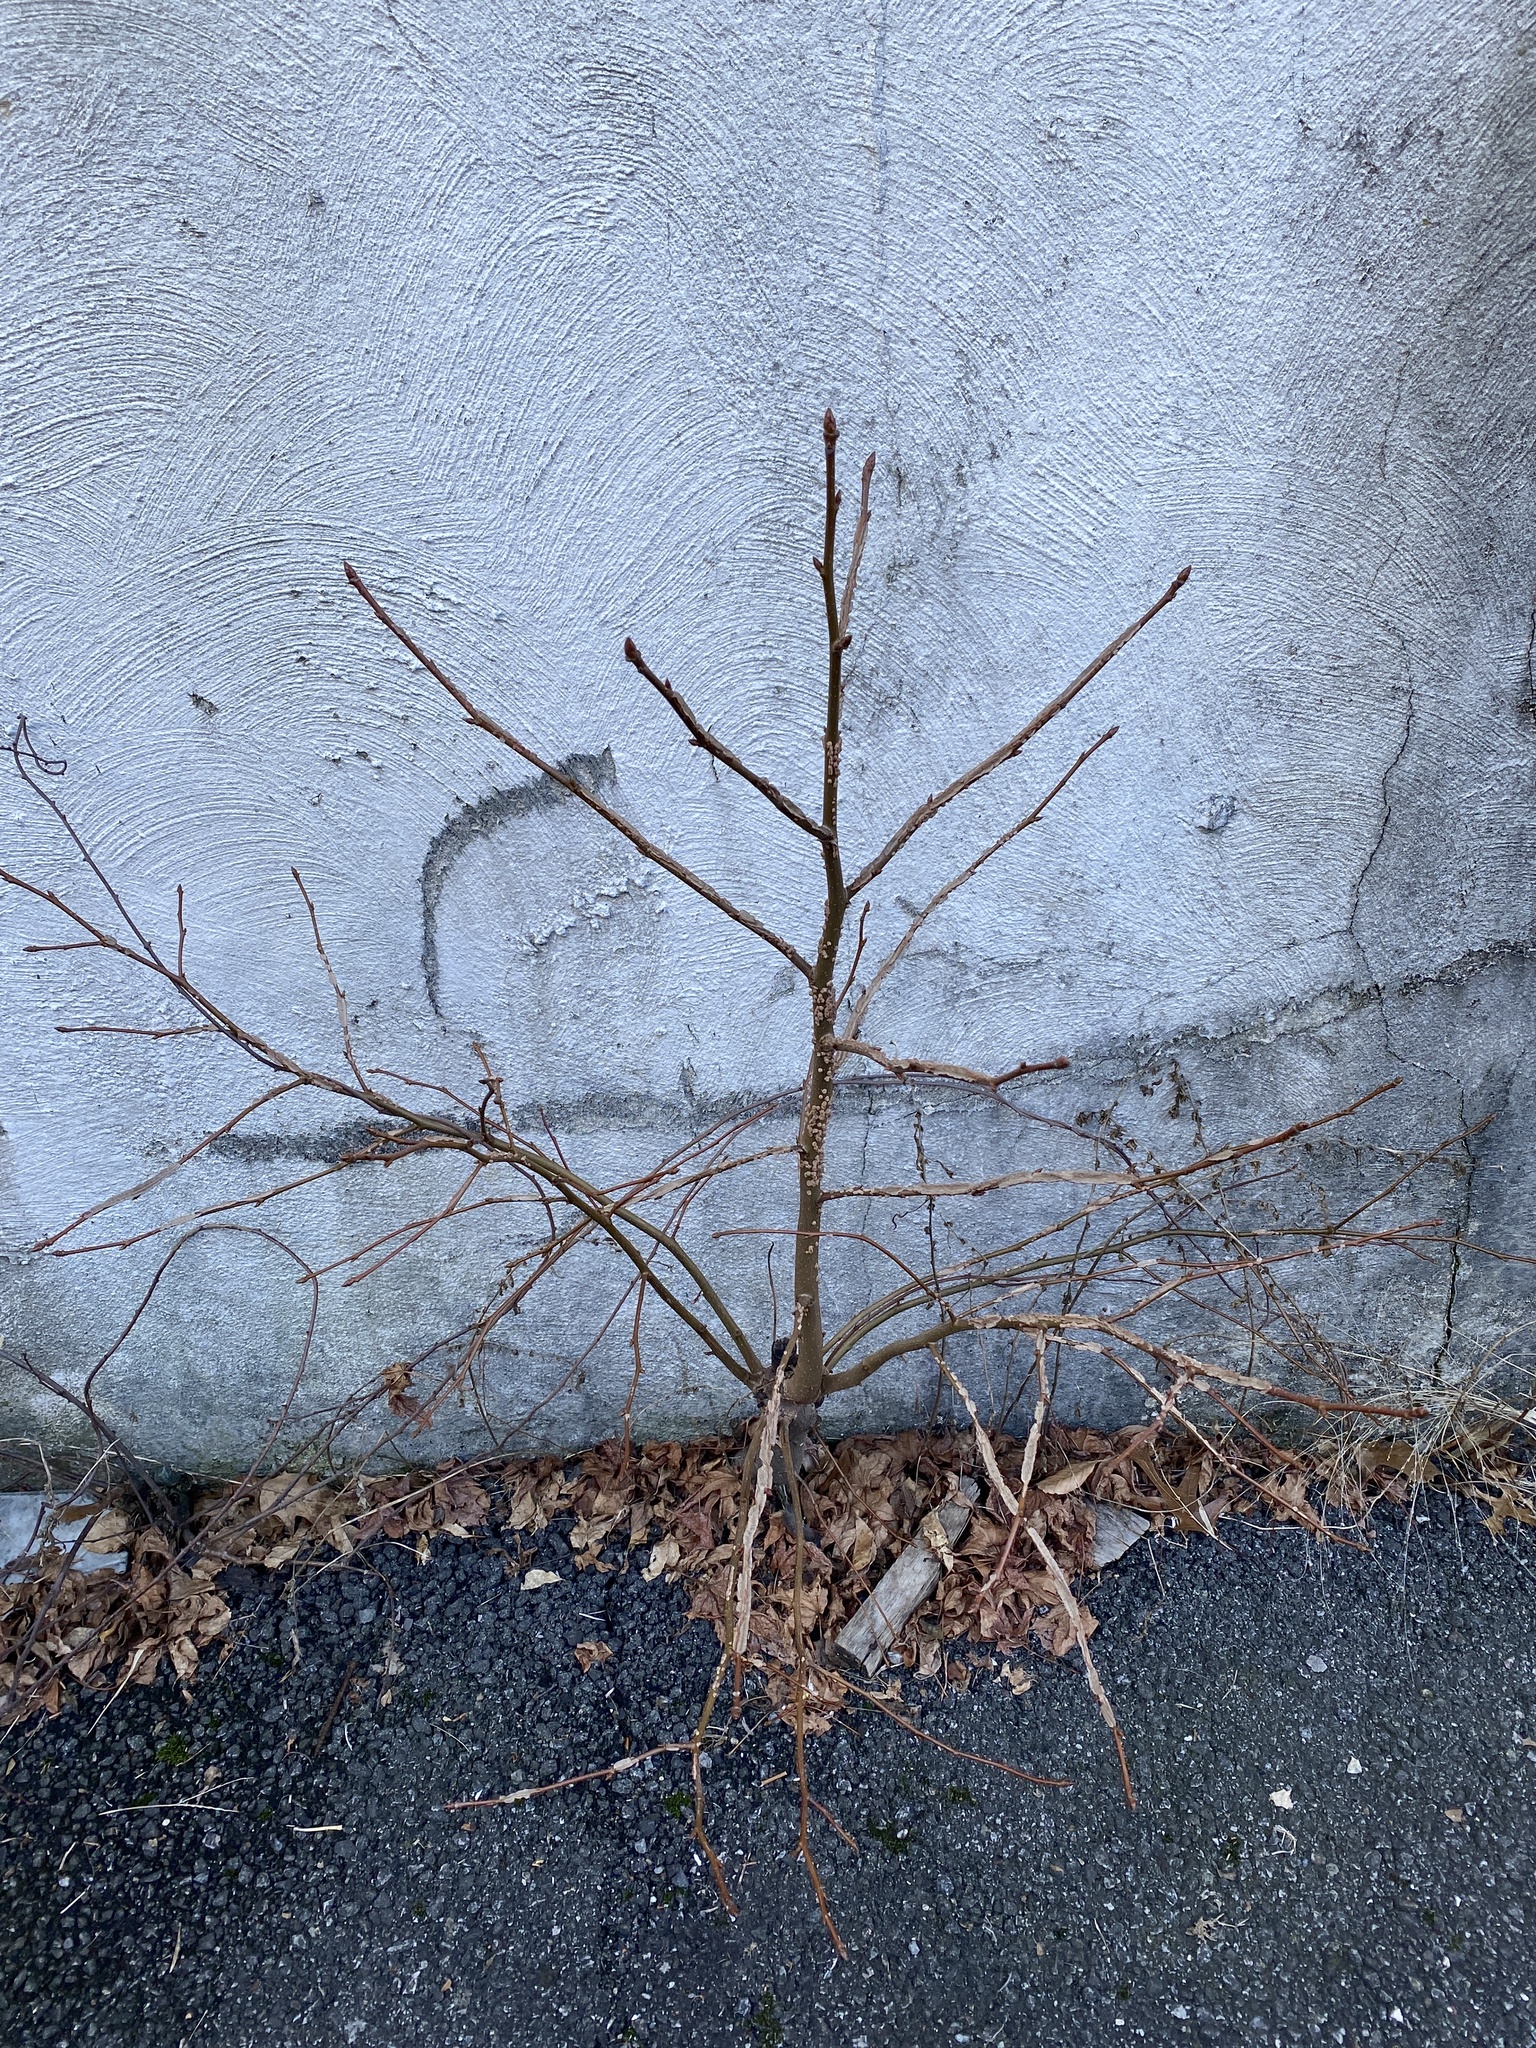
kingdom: Plantae
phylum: Tracheophyta
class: Magnoliopsida
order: Saxifragales
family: Altingiaceae
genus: Liquidambar
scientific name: Liquidambar styraciflua
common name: Sweet gum
